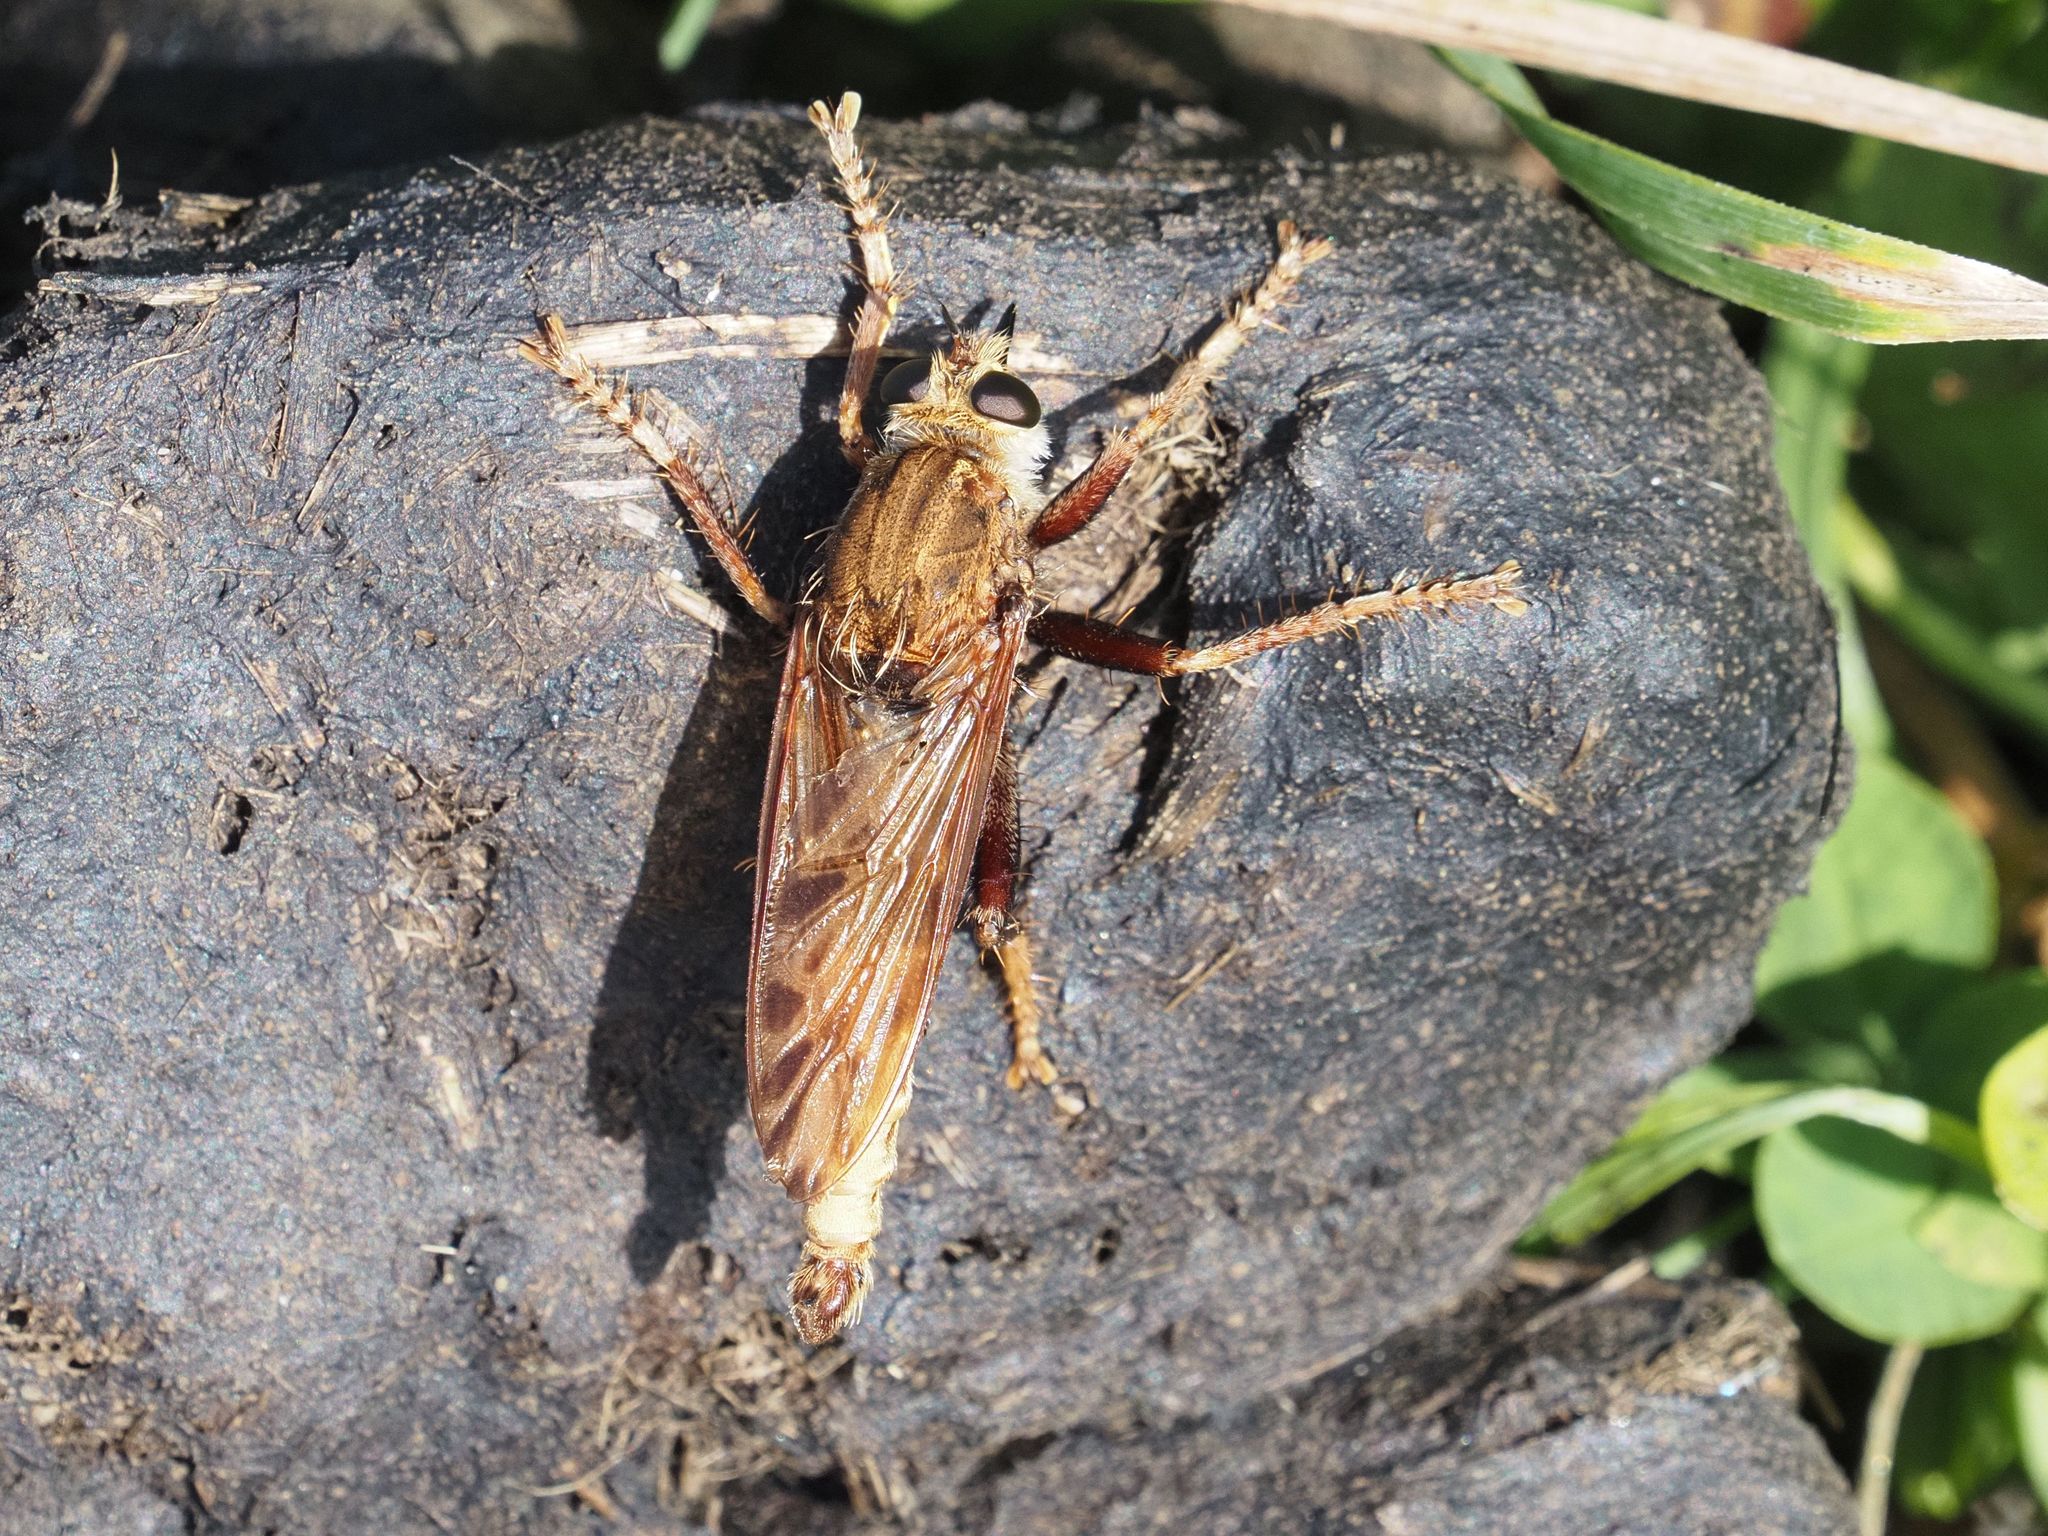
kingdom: Animalia
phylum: Arthropoda
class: Insecta
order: Diptera
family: Asilidae
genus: Asilus
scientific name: Asilus crabroniformis
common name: Hornet robberfly
